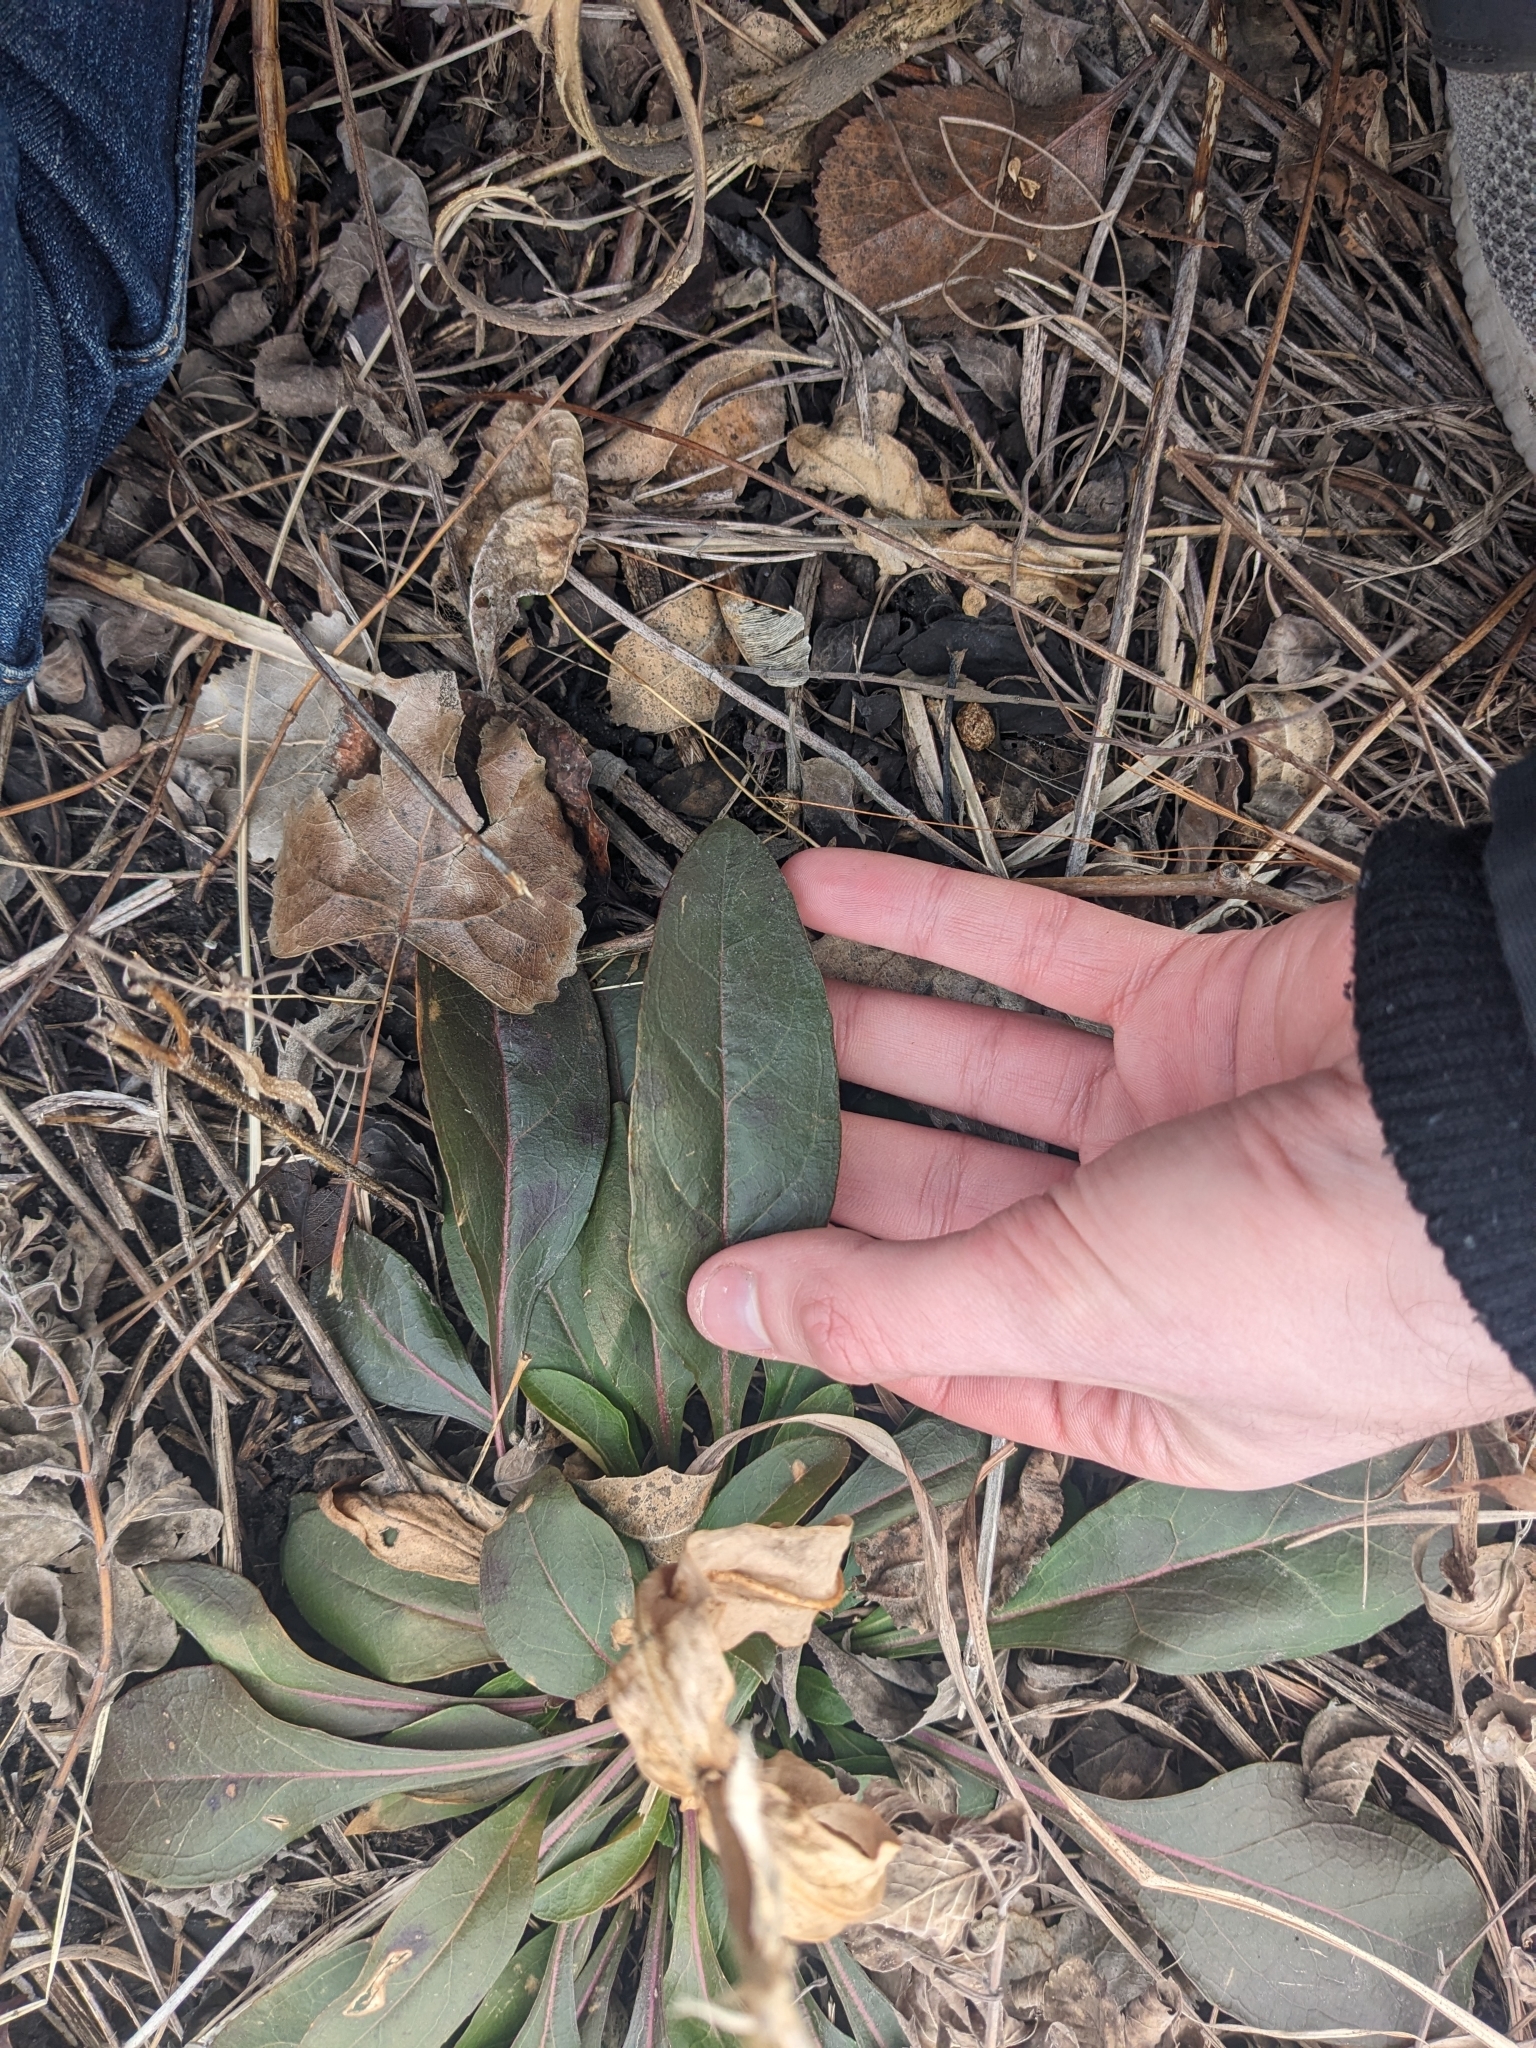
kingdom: Plantae
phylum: Tracheophyta
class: Magnoliopsida
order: Brassicales
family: Brassicaceae
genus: Hesperis
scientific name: Hesperis matronalis
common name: Dame's-violet
